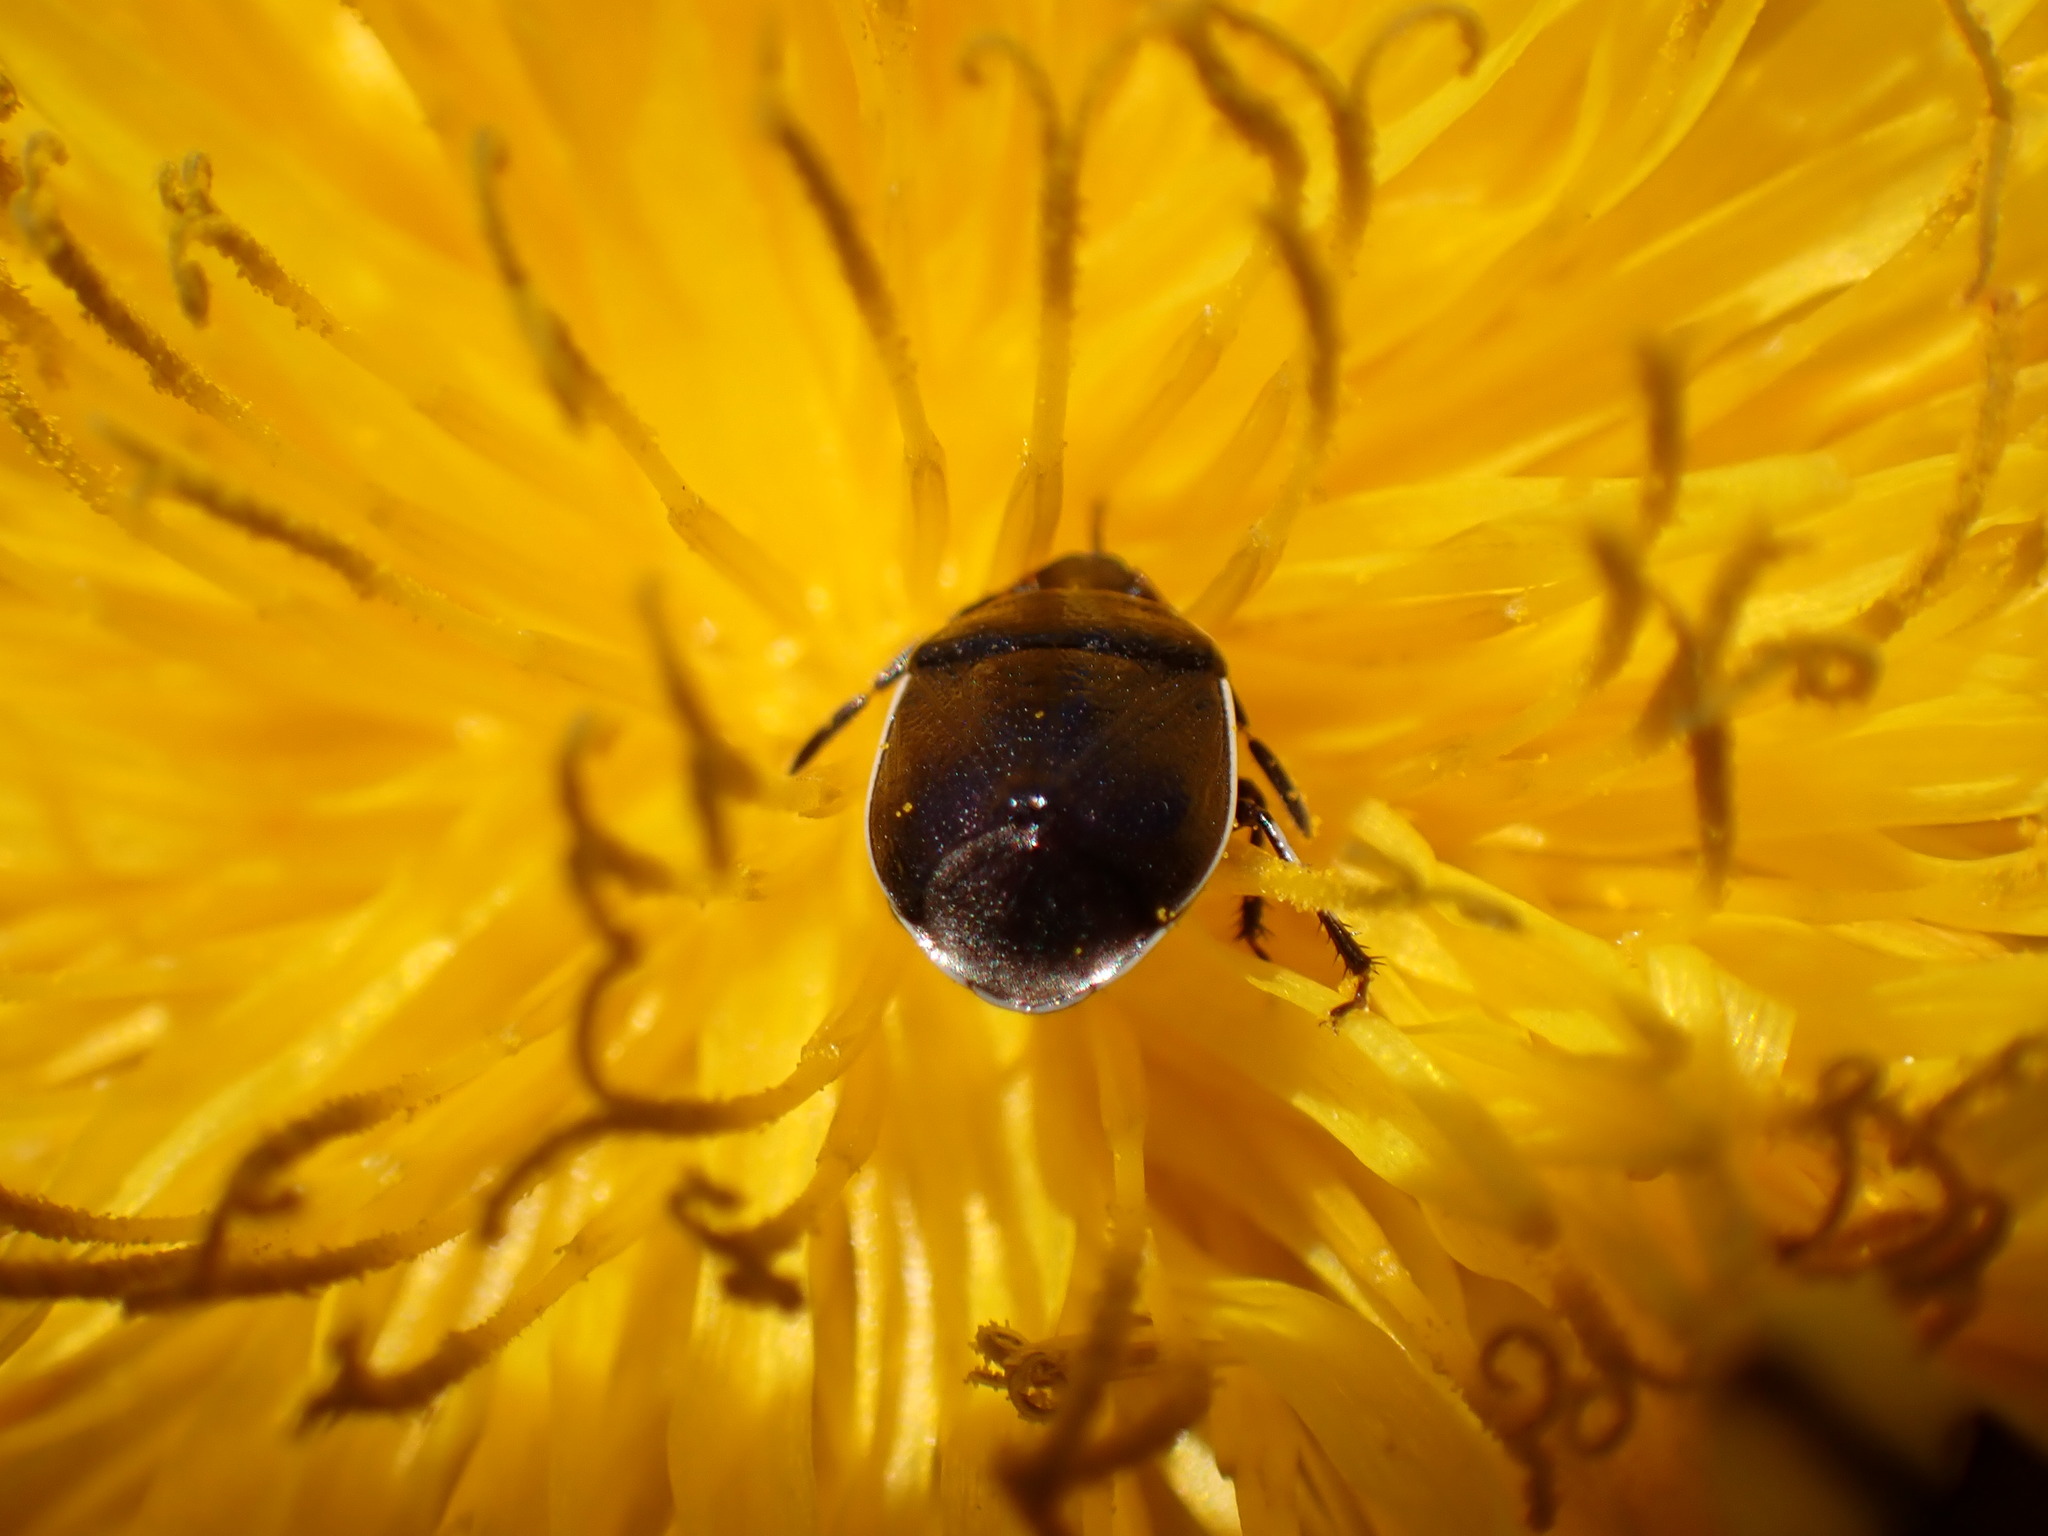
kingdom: Animalia
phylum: Arthropoda
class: Insecta
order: Hemiptera
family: Cydnidae
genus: Sehirus
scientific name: Sehirus cinctus
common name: White-margined burrower bug
